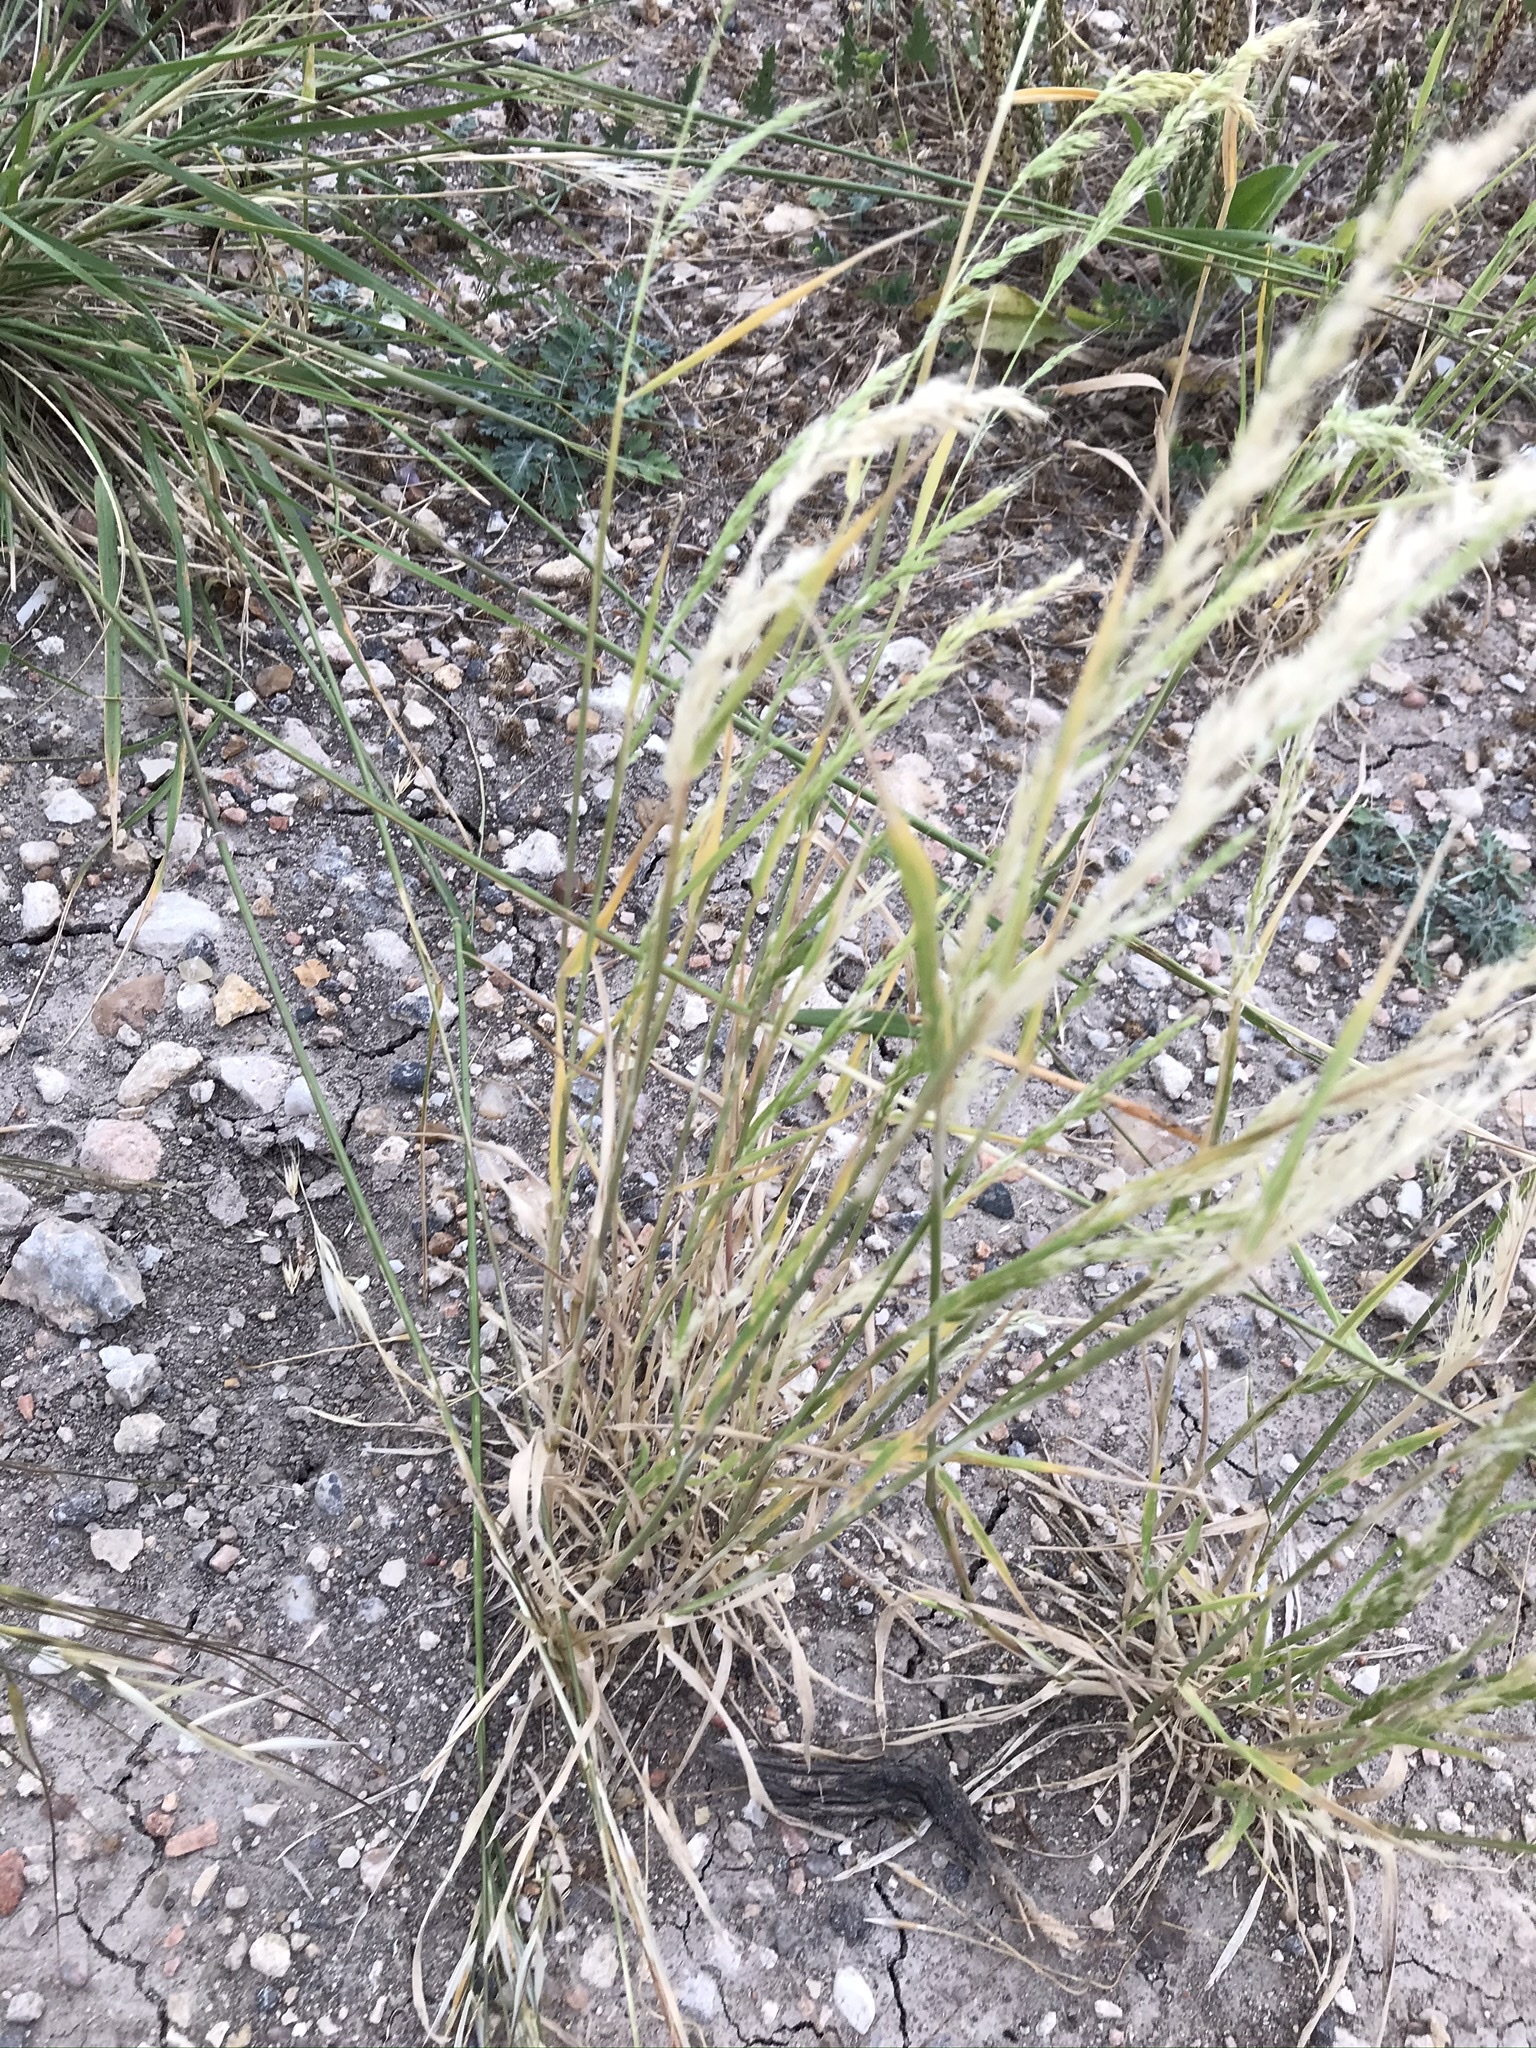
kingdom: Plantae
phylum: Tracheophyta
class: Liliopsida
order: Poales
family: Poaceae
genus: Limnodea
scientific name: Limnodea arkansana
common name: Ozark-grass
